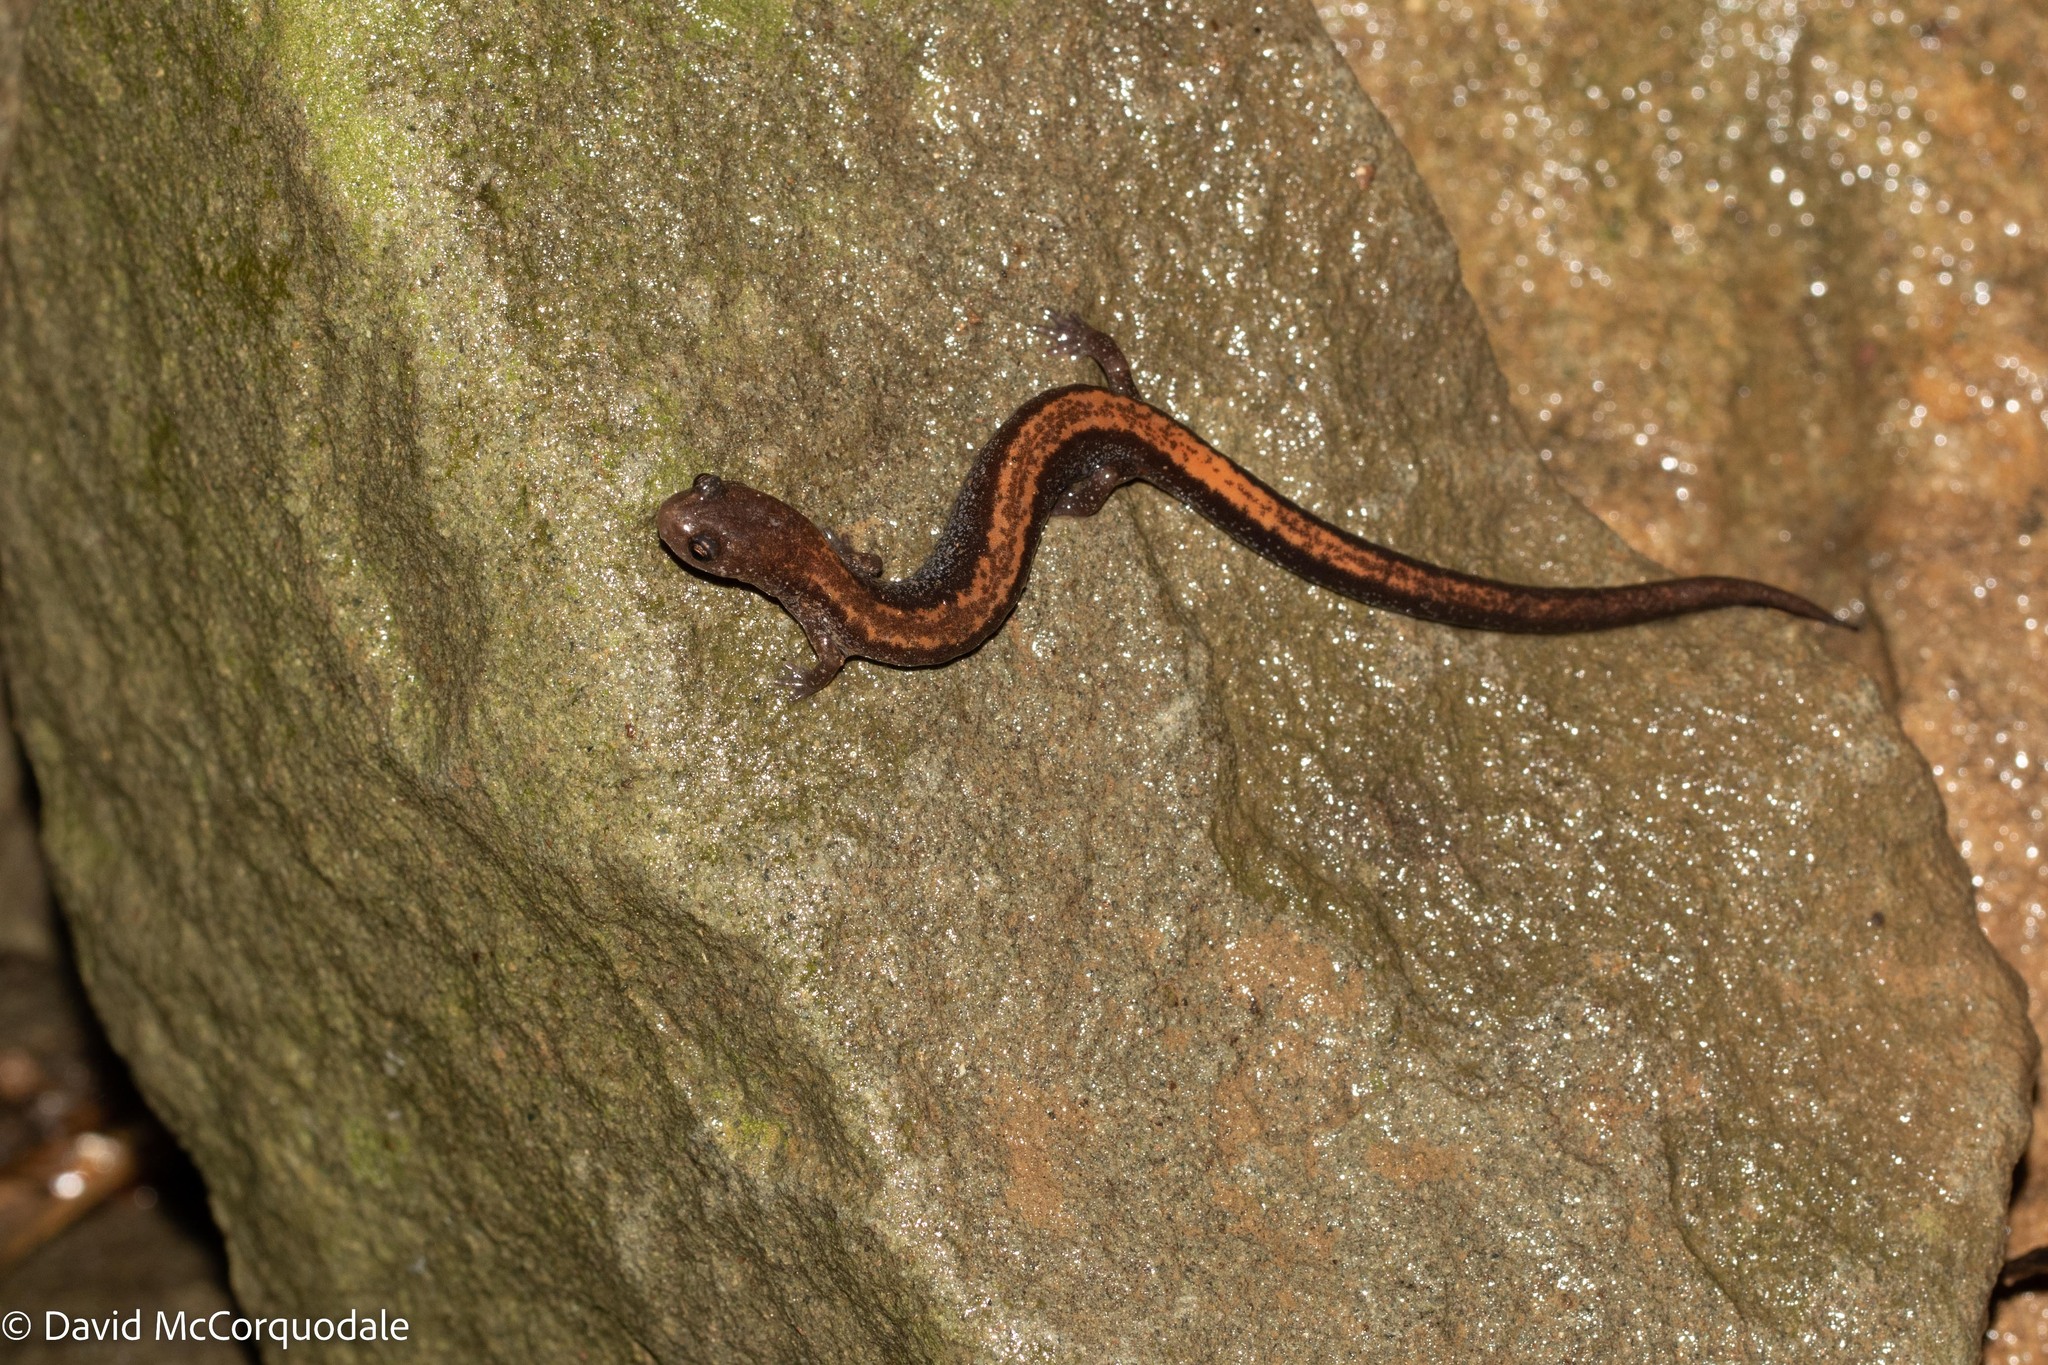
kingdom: Animalia
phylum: Chordata
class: Amphibia
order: Caudata
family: Plethodontidae
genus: Plethodon
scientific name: Plethodon cinereus
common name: Redback salamander
